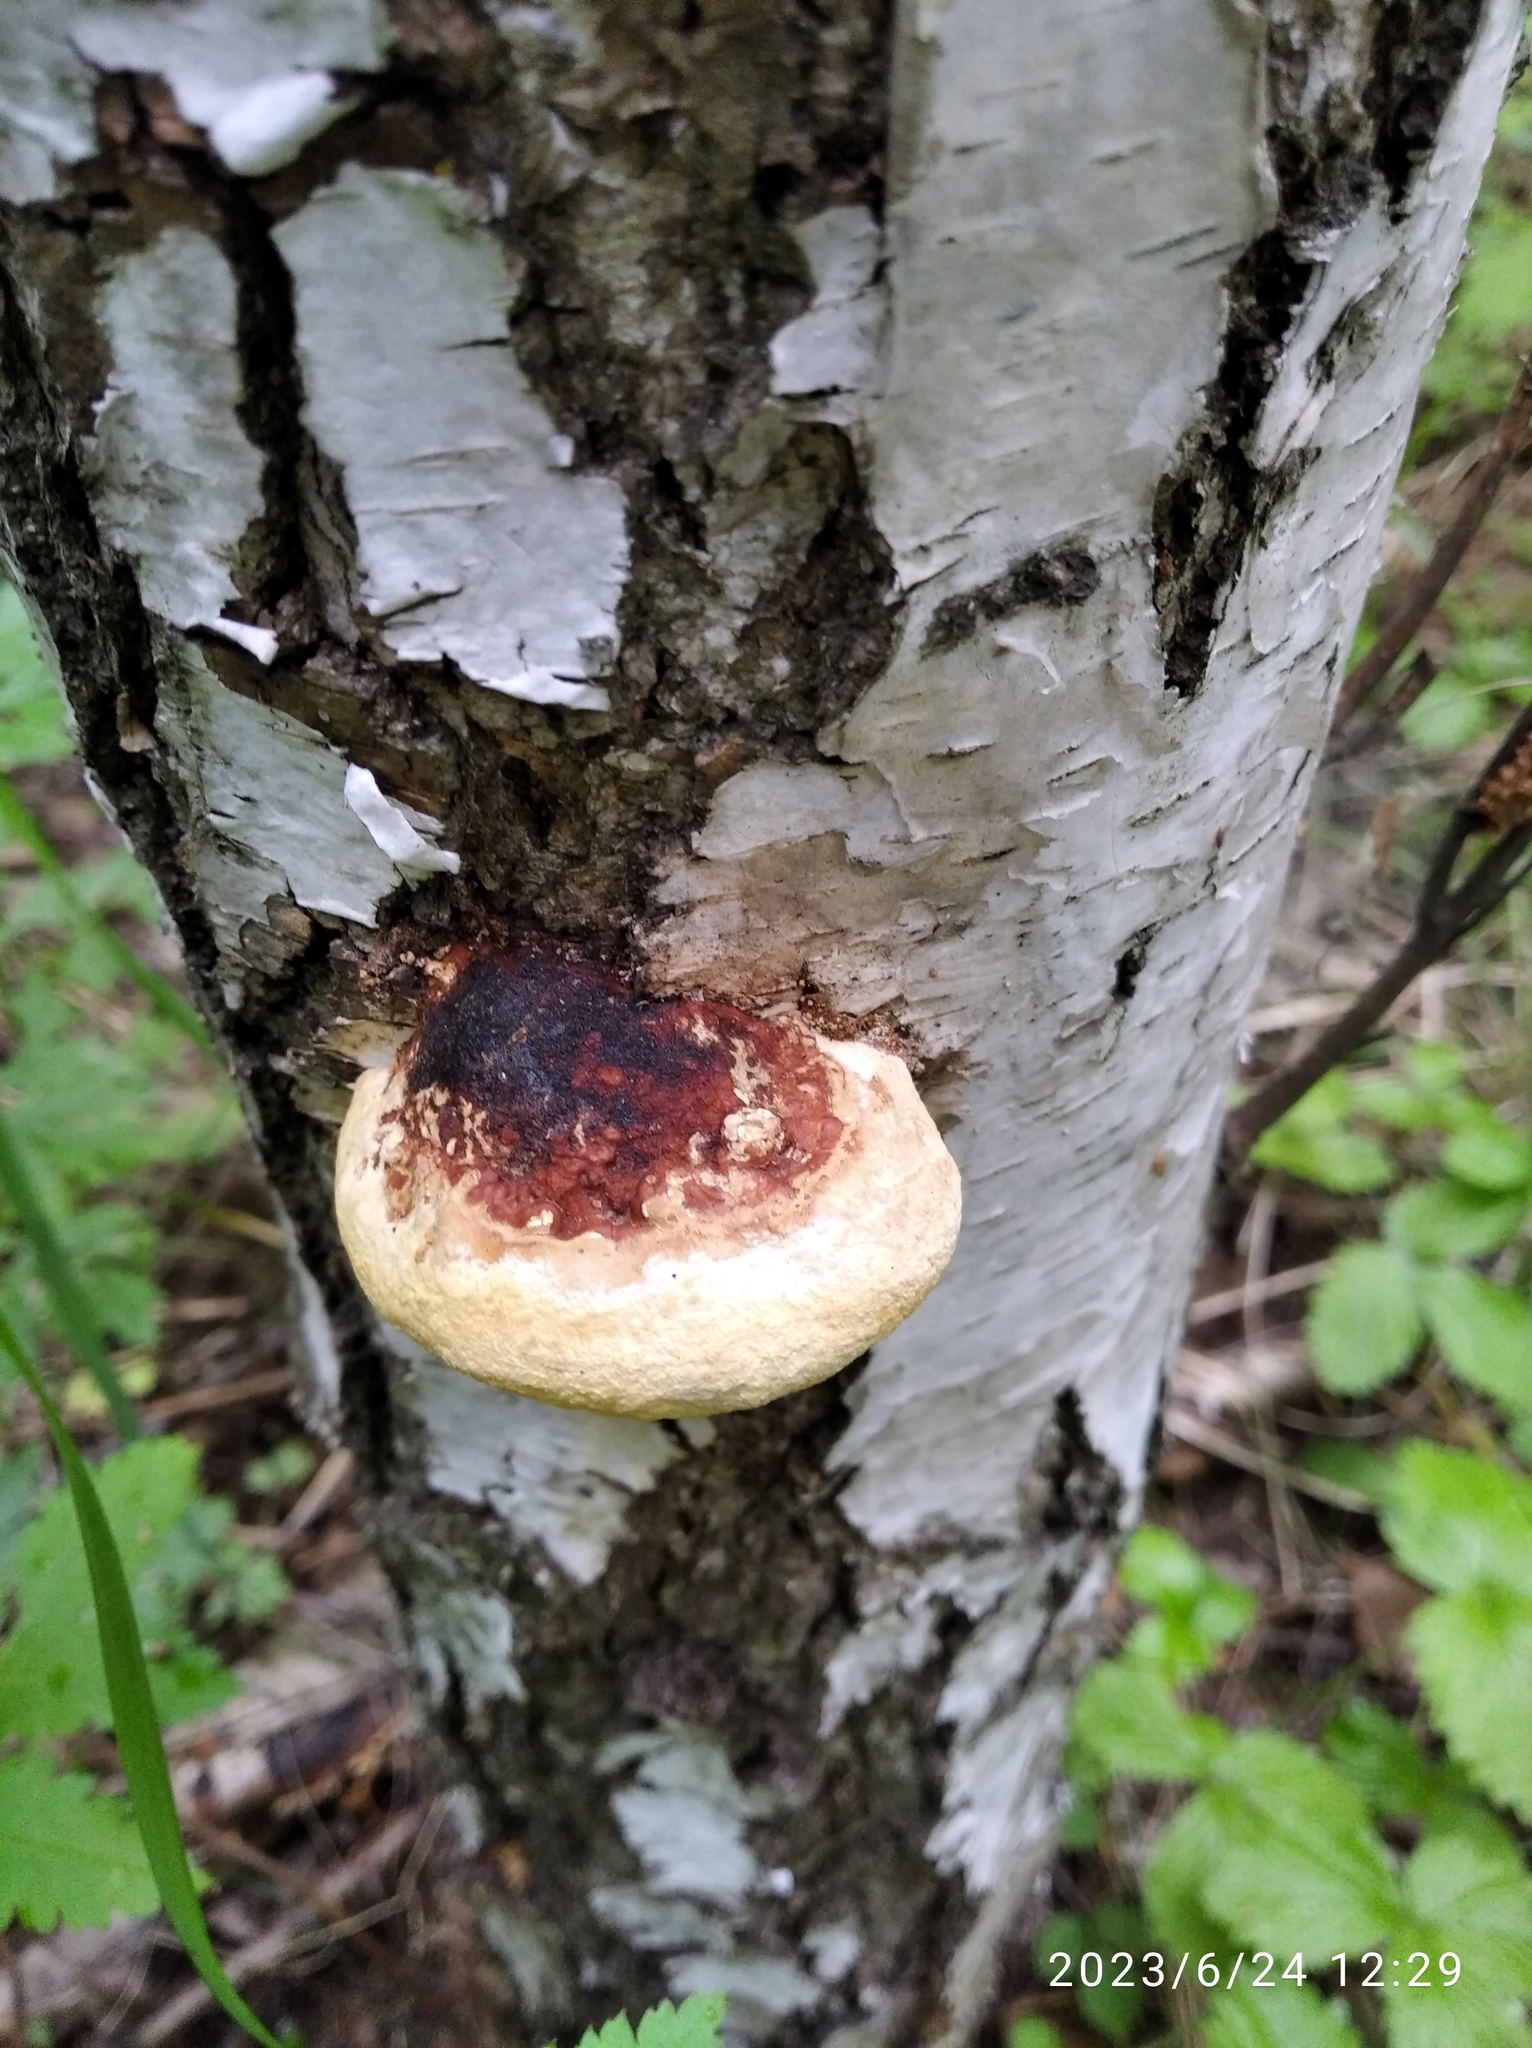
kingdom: Fungi
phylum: Basidiomycota
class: Agaricomycetes
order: Polyporales
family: Fomitopsidaceae
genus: Fomitopsis
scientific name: Fomitopsis pinicola
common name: Red-belted bracket
